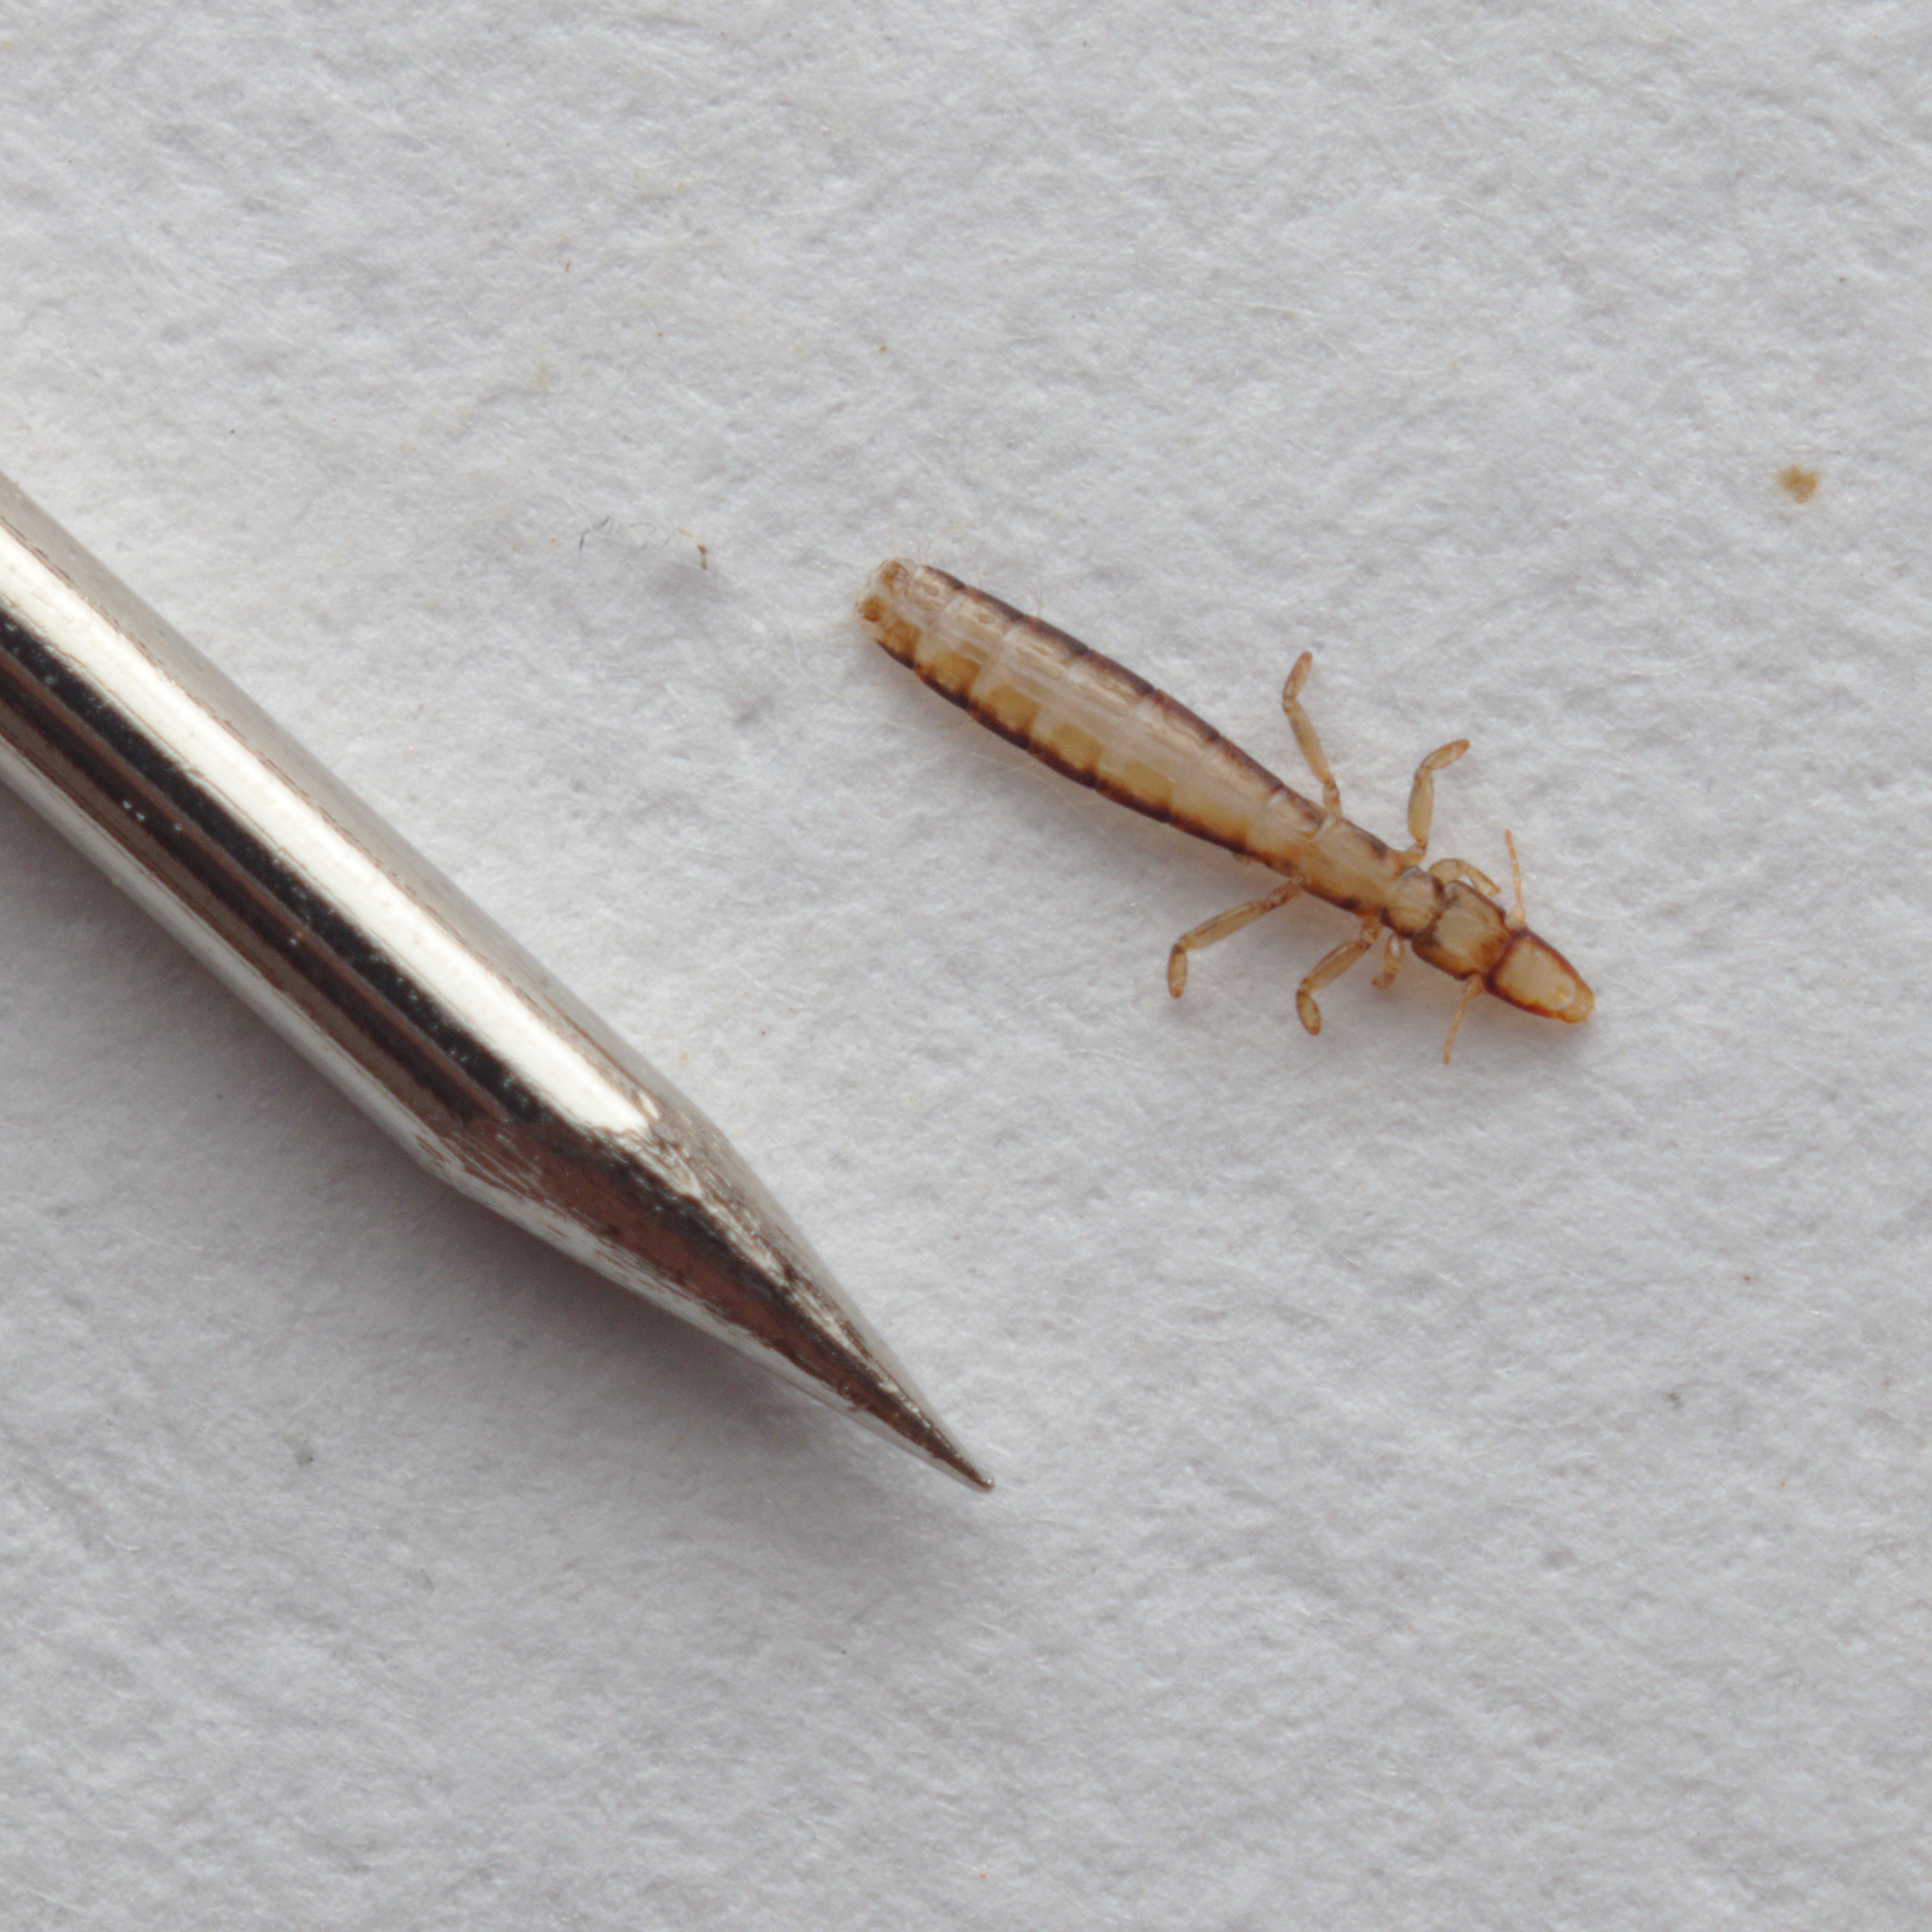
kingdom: Animalia
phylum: Arthropoda
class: Insecta
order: Psocodea
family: Philopteridae
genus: Columbicola
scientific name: Columbicola columbae
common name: Louse
